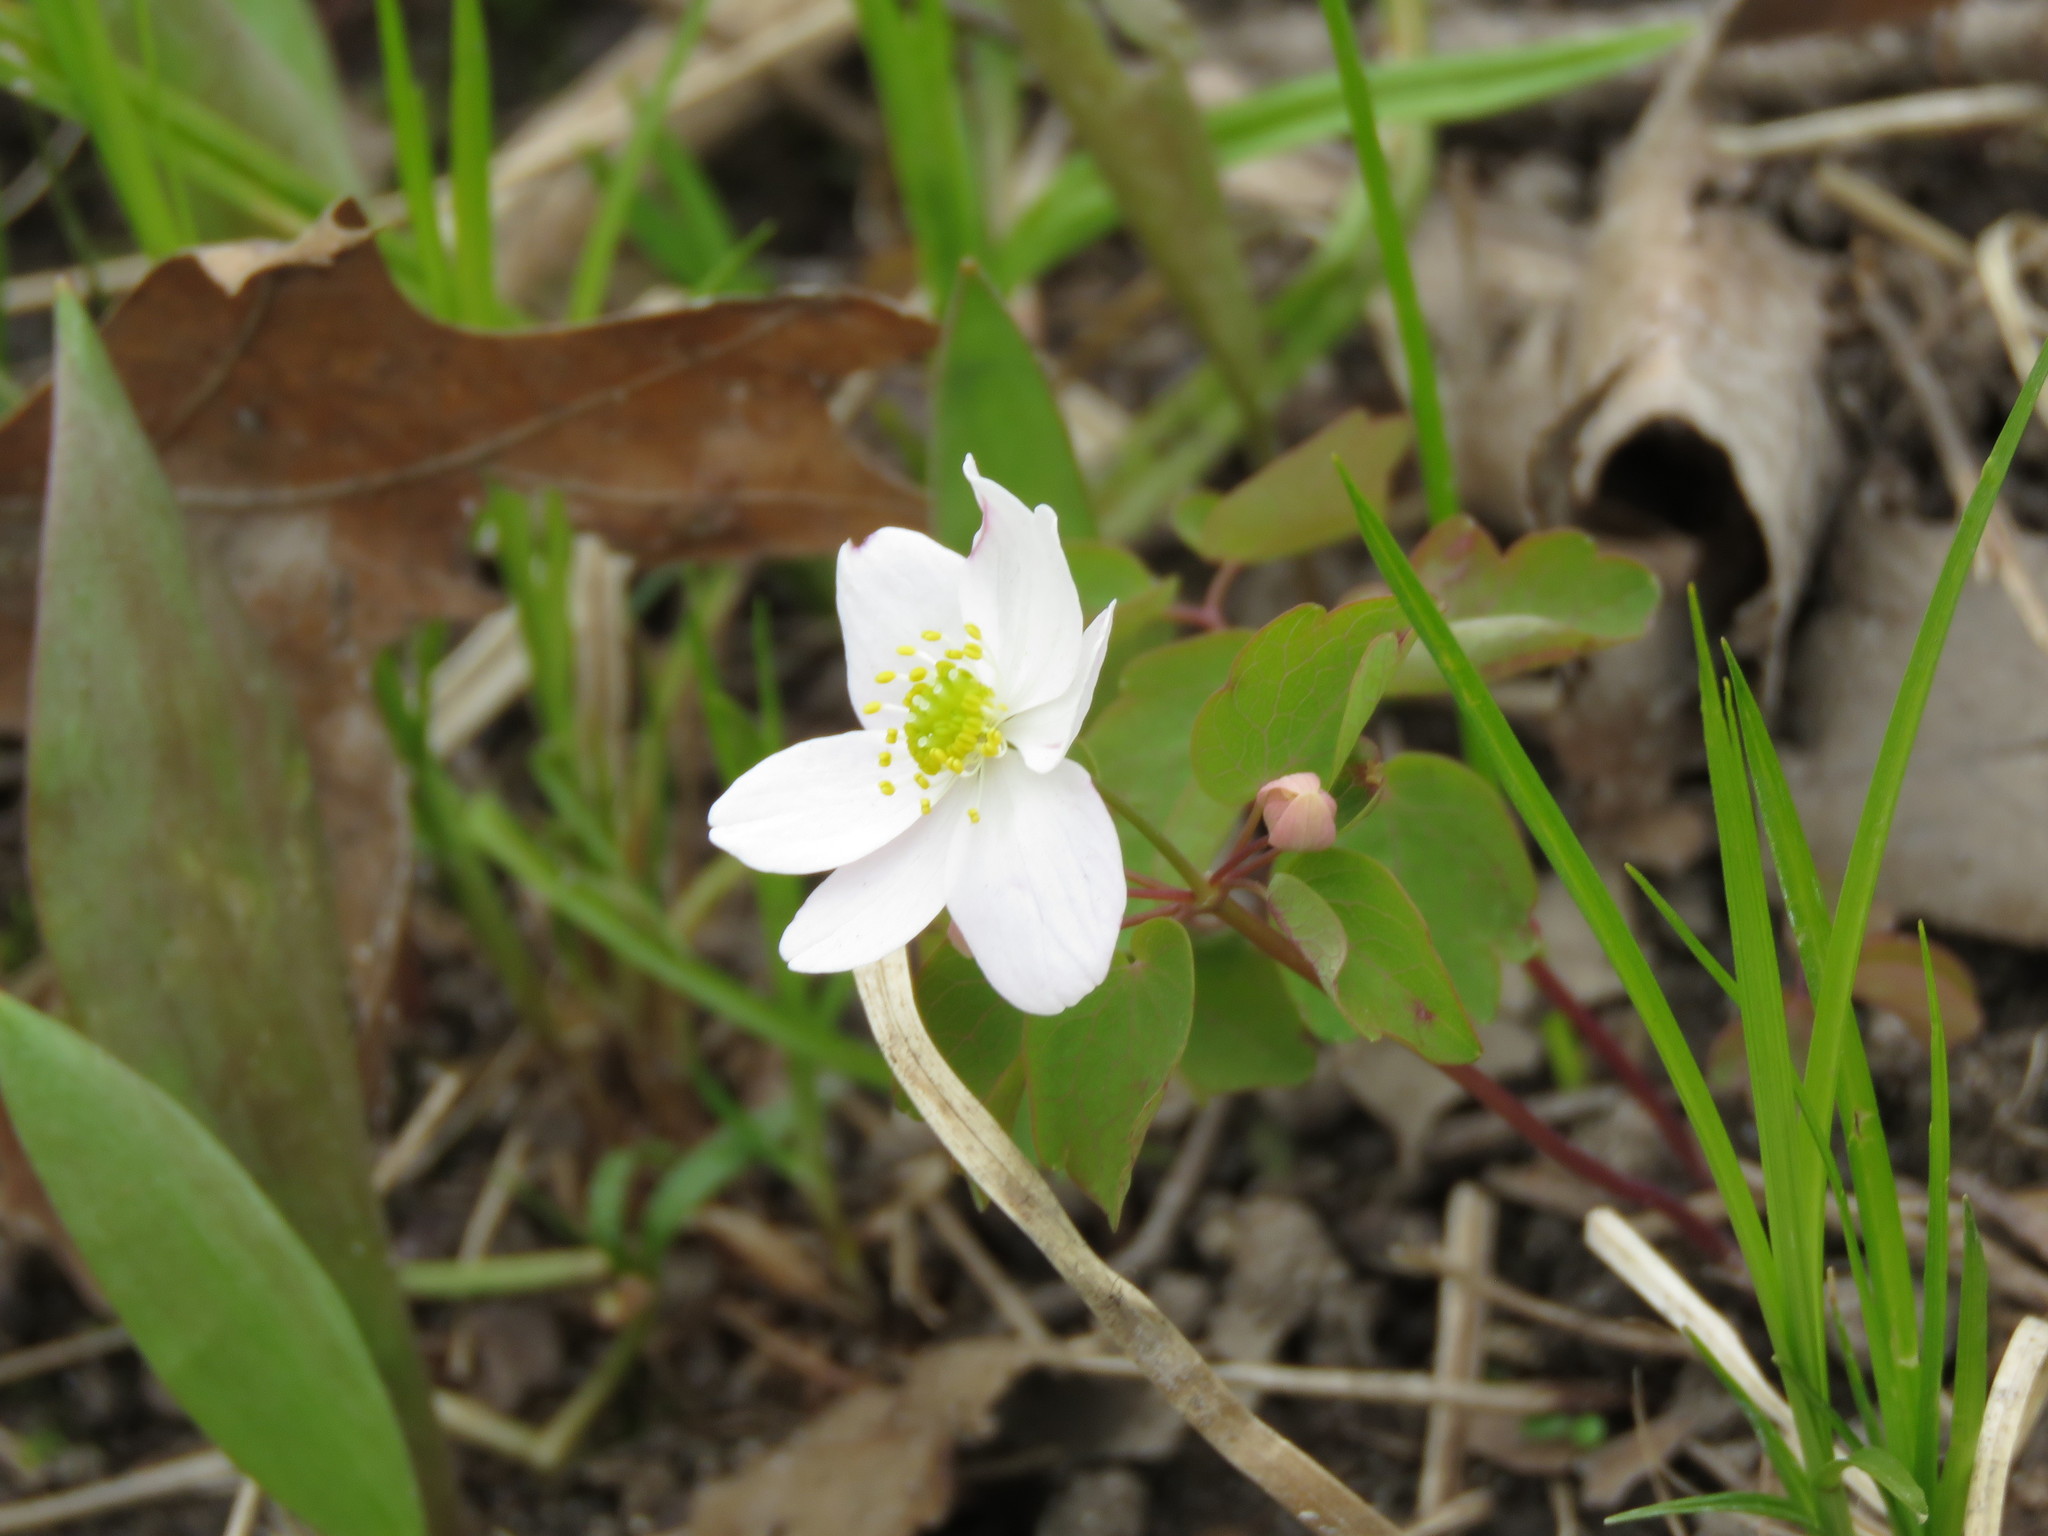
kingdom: Plantae
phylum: Tracheophyta
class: Magnoliopsida
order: Ranunculales
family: Ranunculaceae
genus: Thalictrum
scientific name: Thalictrum thalictroides
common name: Rue-anemone
